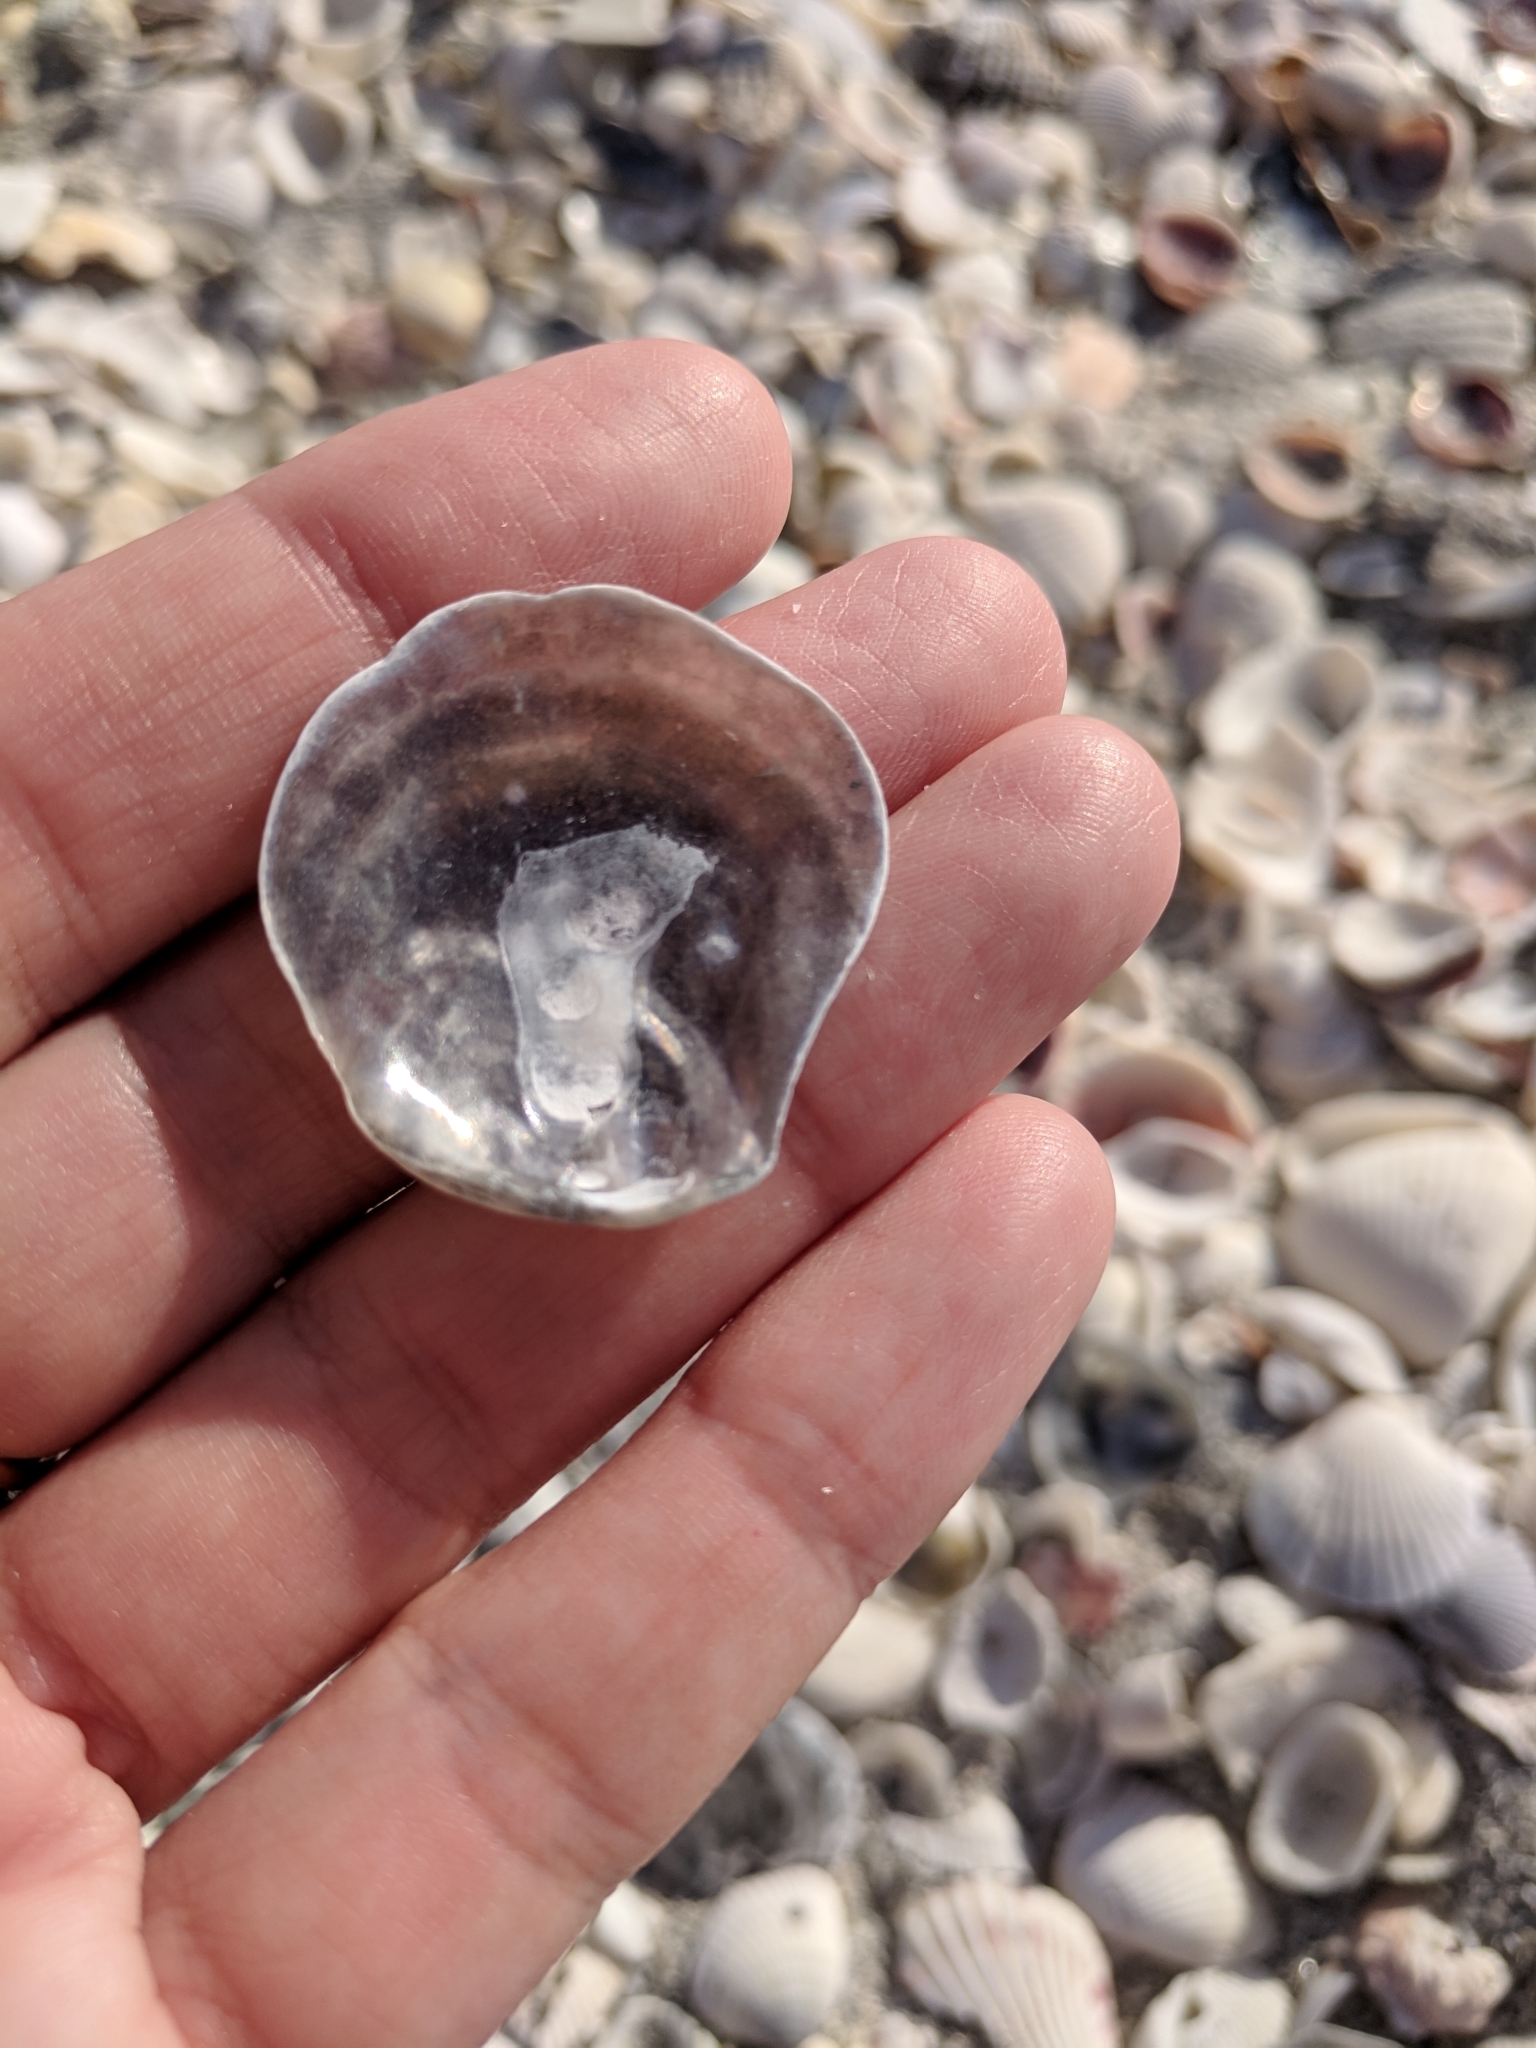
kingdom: Animalia
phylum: Mollusca
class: Bivalvia
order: Pectinida
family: Anomiidae
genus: Anomia
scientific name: Anomia simplex
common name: Common jingle shell
